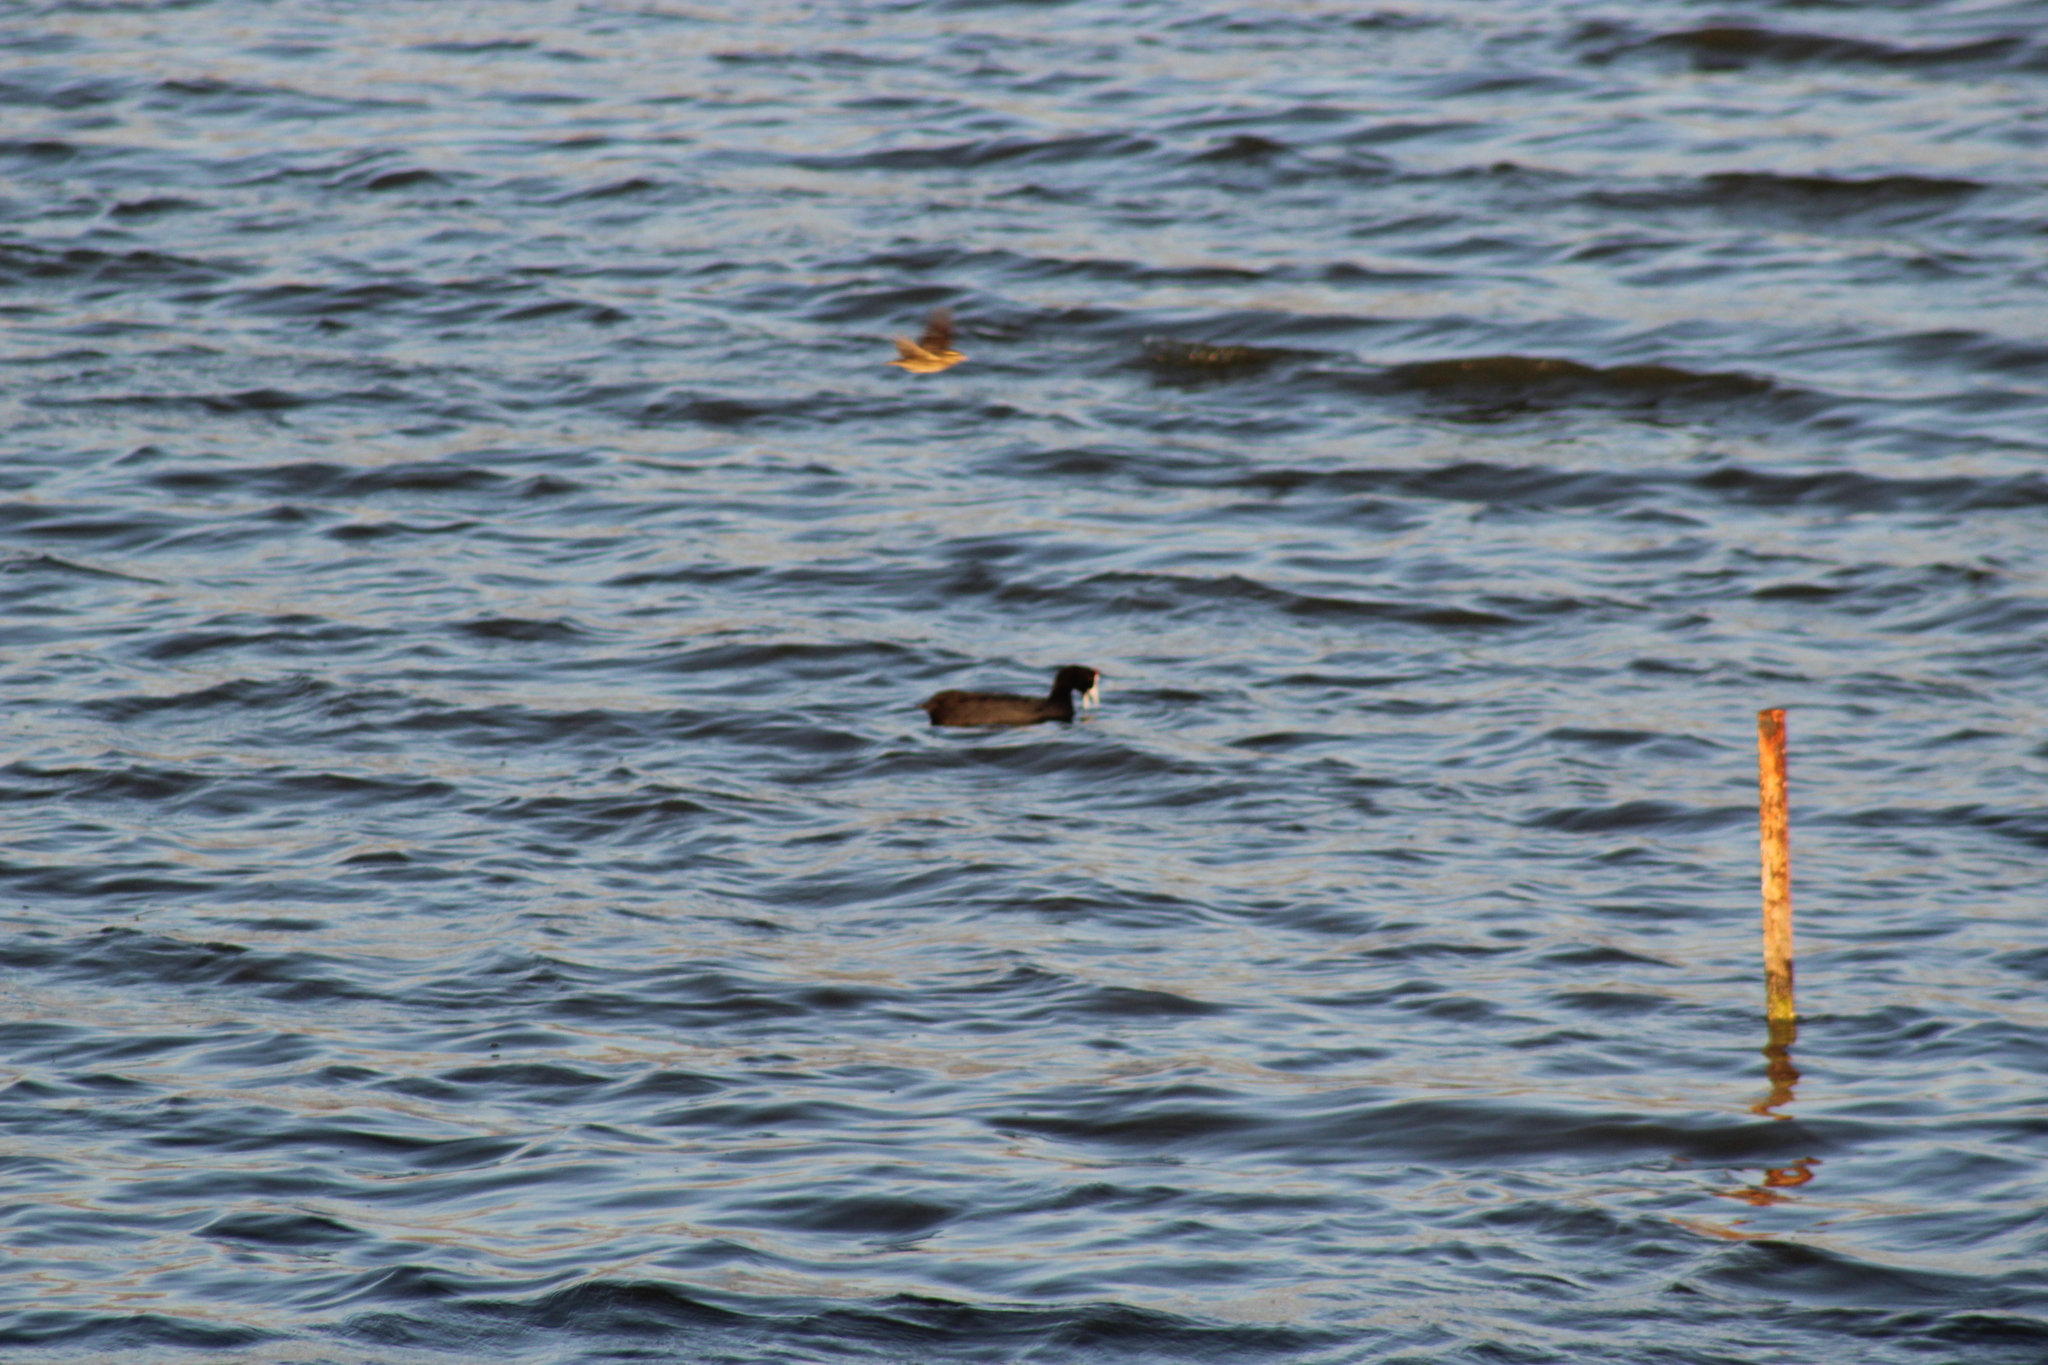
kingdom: Animalia
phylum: Chordata
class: Aves
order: Gruiformes
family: Rallidae
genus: Fulica
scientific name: Fulica cristata
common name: Red-knobbed coot
